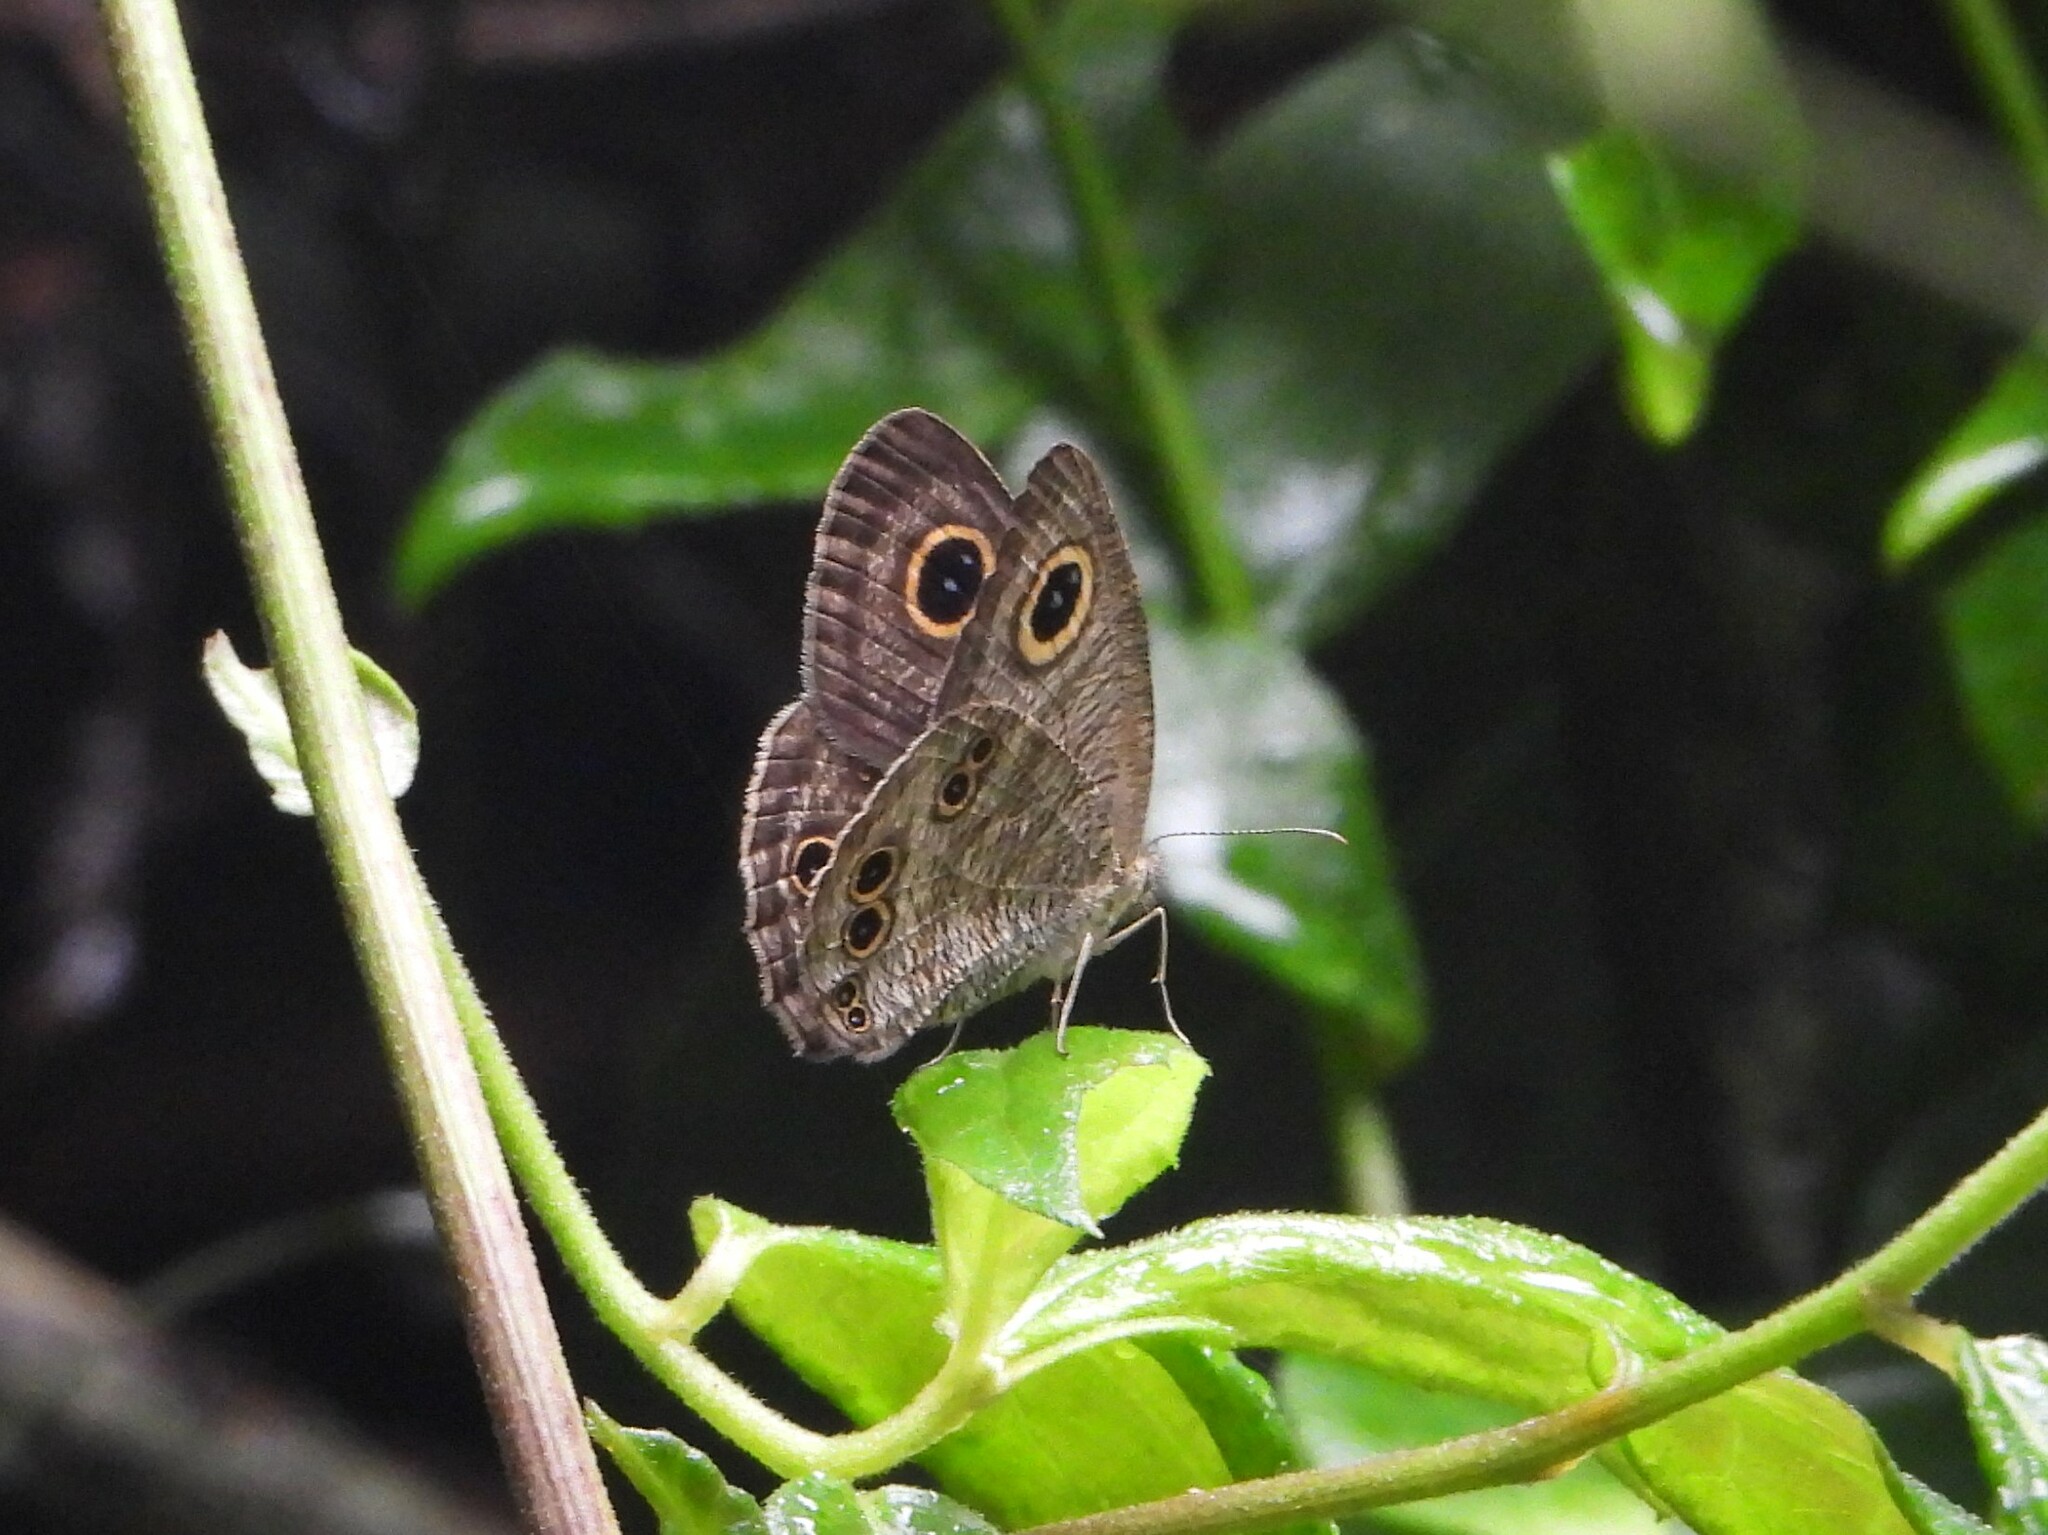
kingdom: Animalia
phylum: Arthropoda
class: Insecta
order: Lepidoptera
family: Nymphalidae
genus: Ypthima
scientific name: Ypthima baldus
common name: Common five-ring
